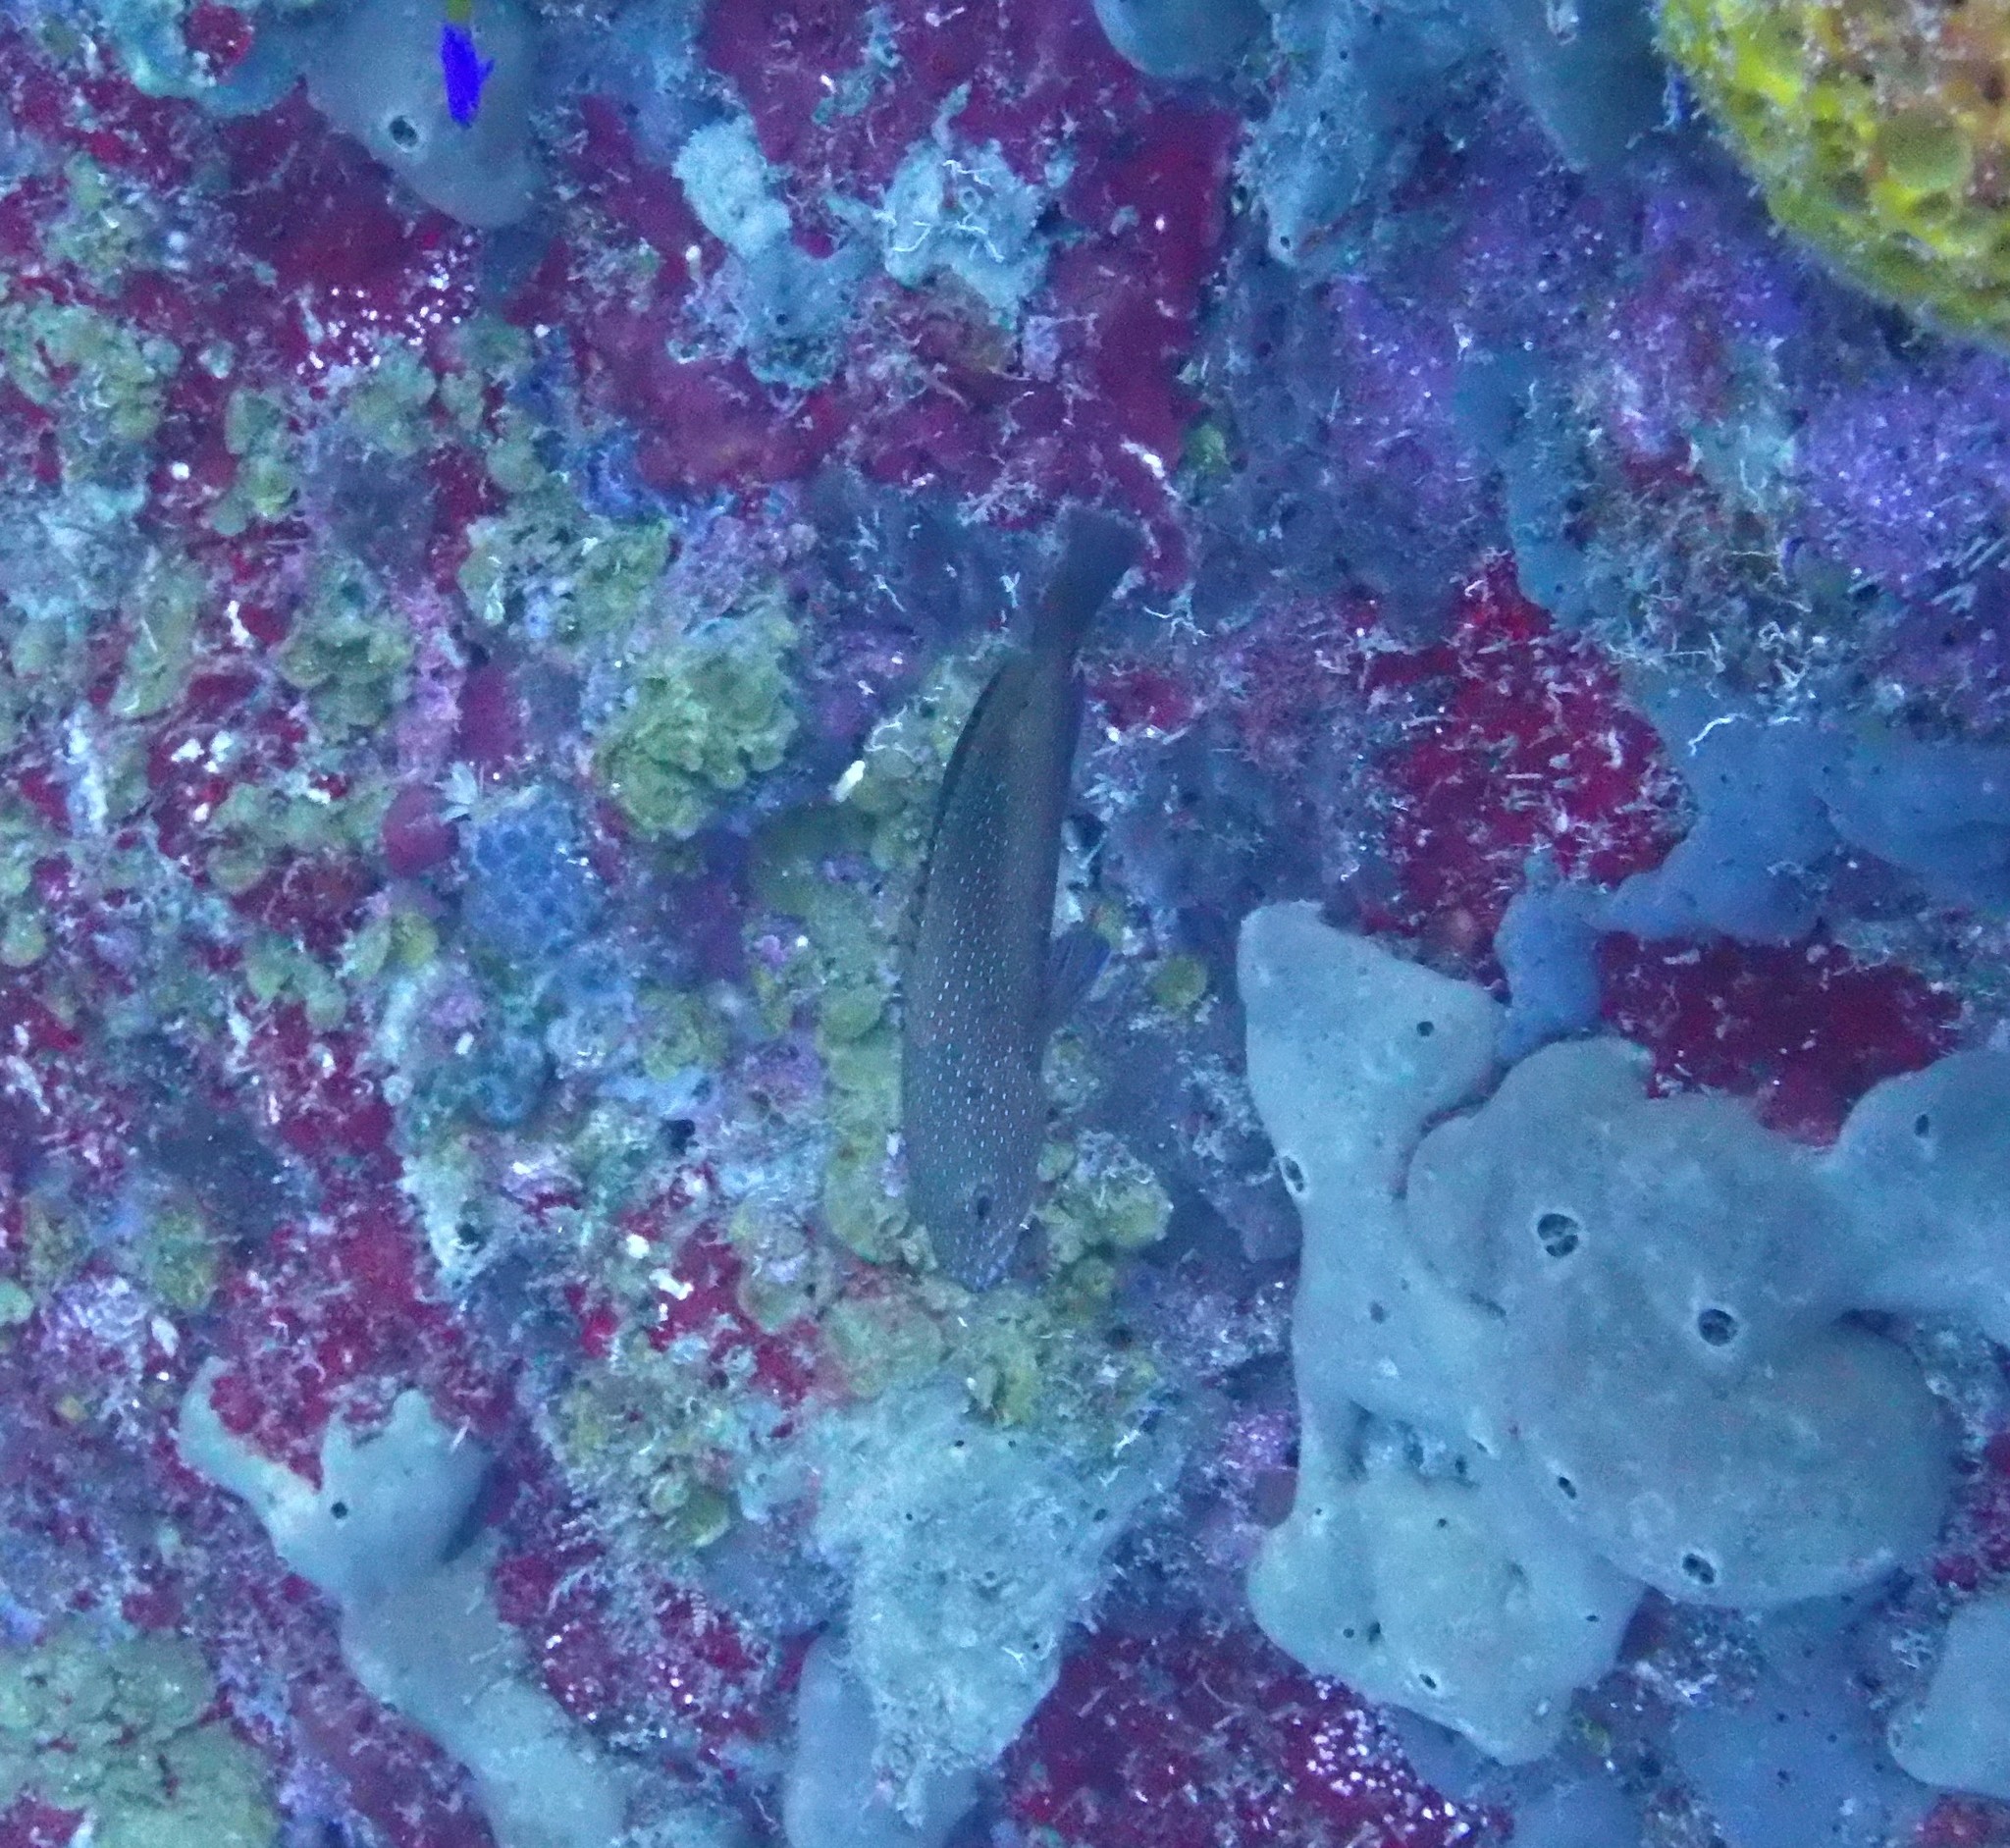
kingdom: Animalia
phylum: Chordata
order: Perciformes
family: Serranidae
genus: Cephalopholis
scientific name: Cephalopholis fulva
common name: Butterfish
